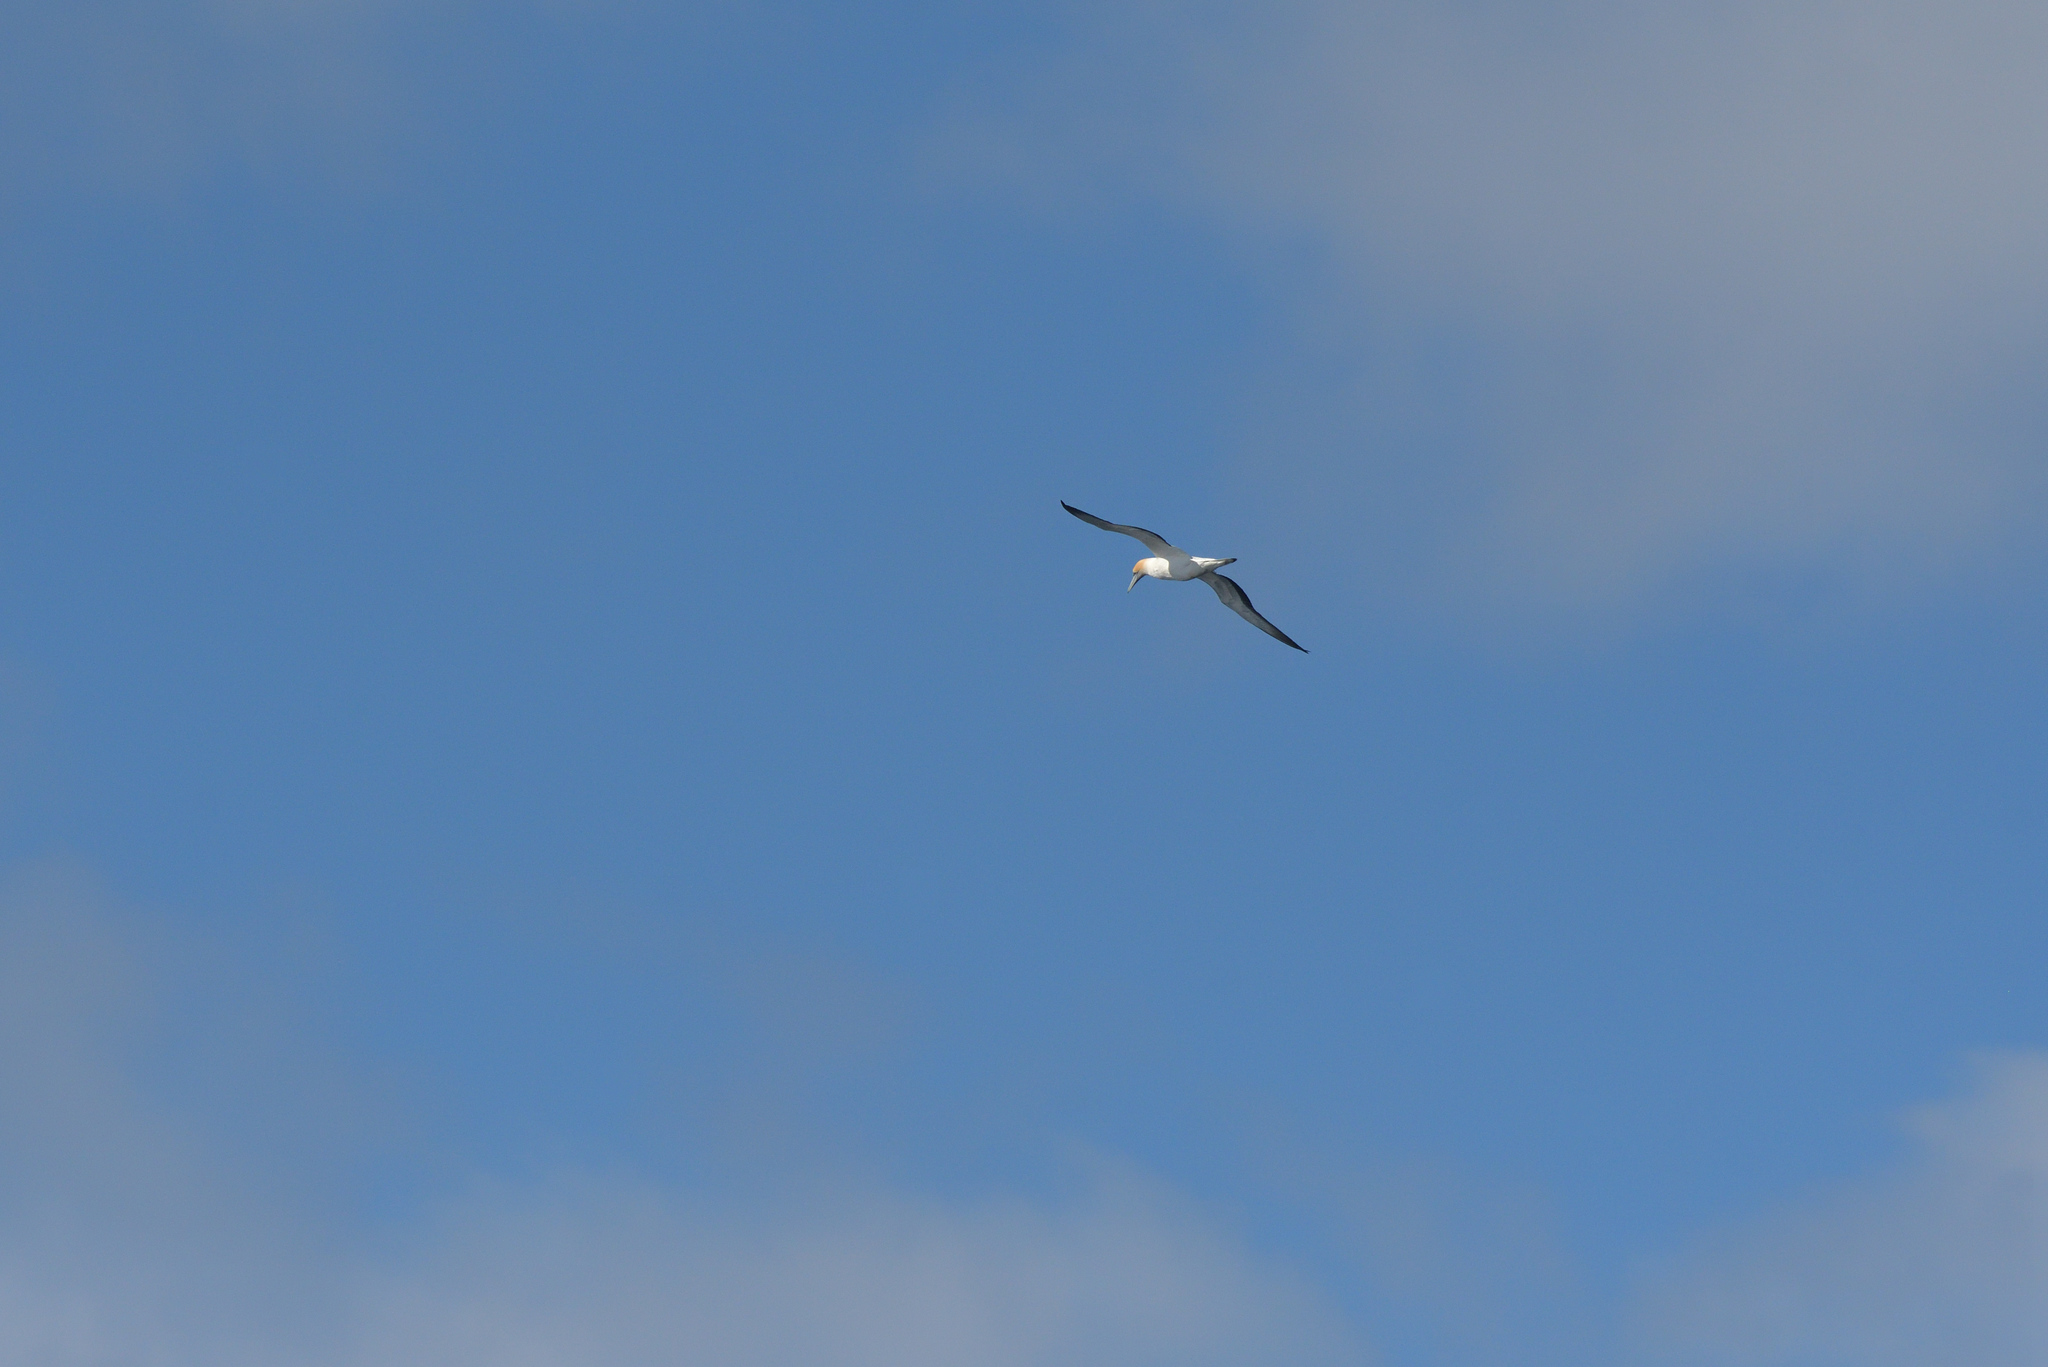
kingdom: Animalia
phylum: Chordata
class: Aves
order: Suliformes
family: Sulidae
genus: Morus
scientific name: Morus serrator
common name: Australasian gannet
